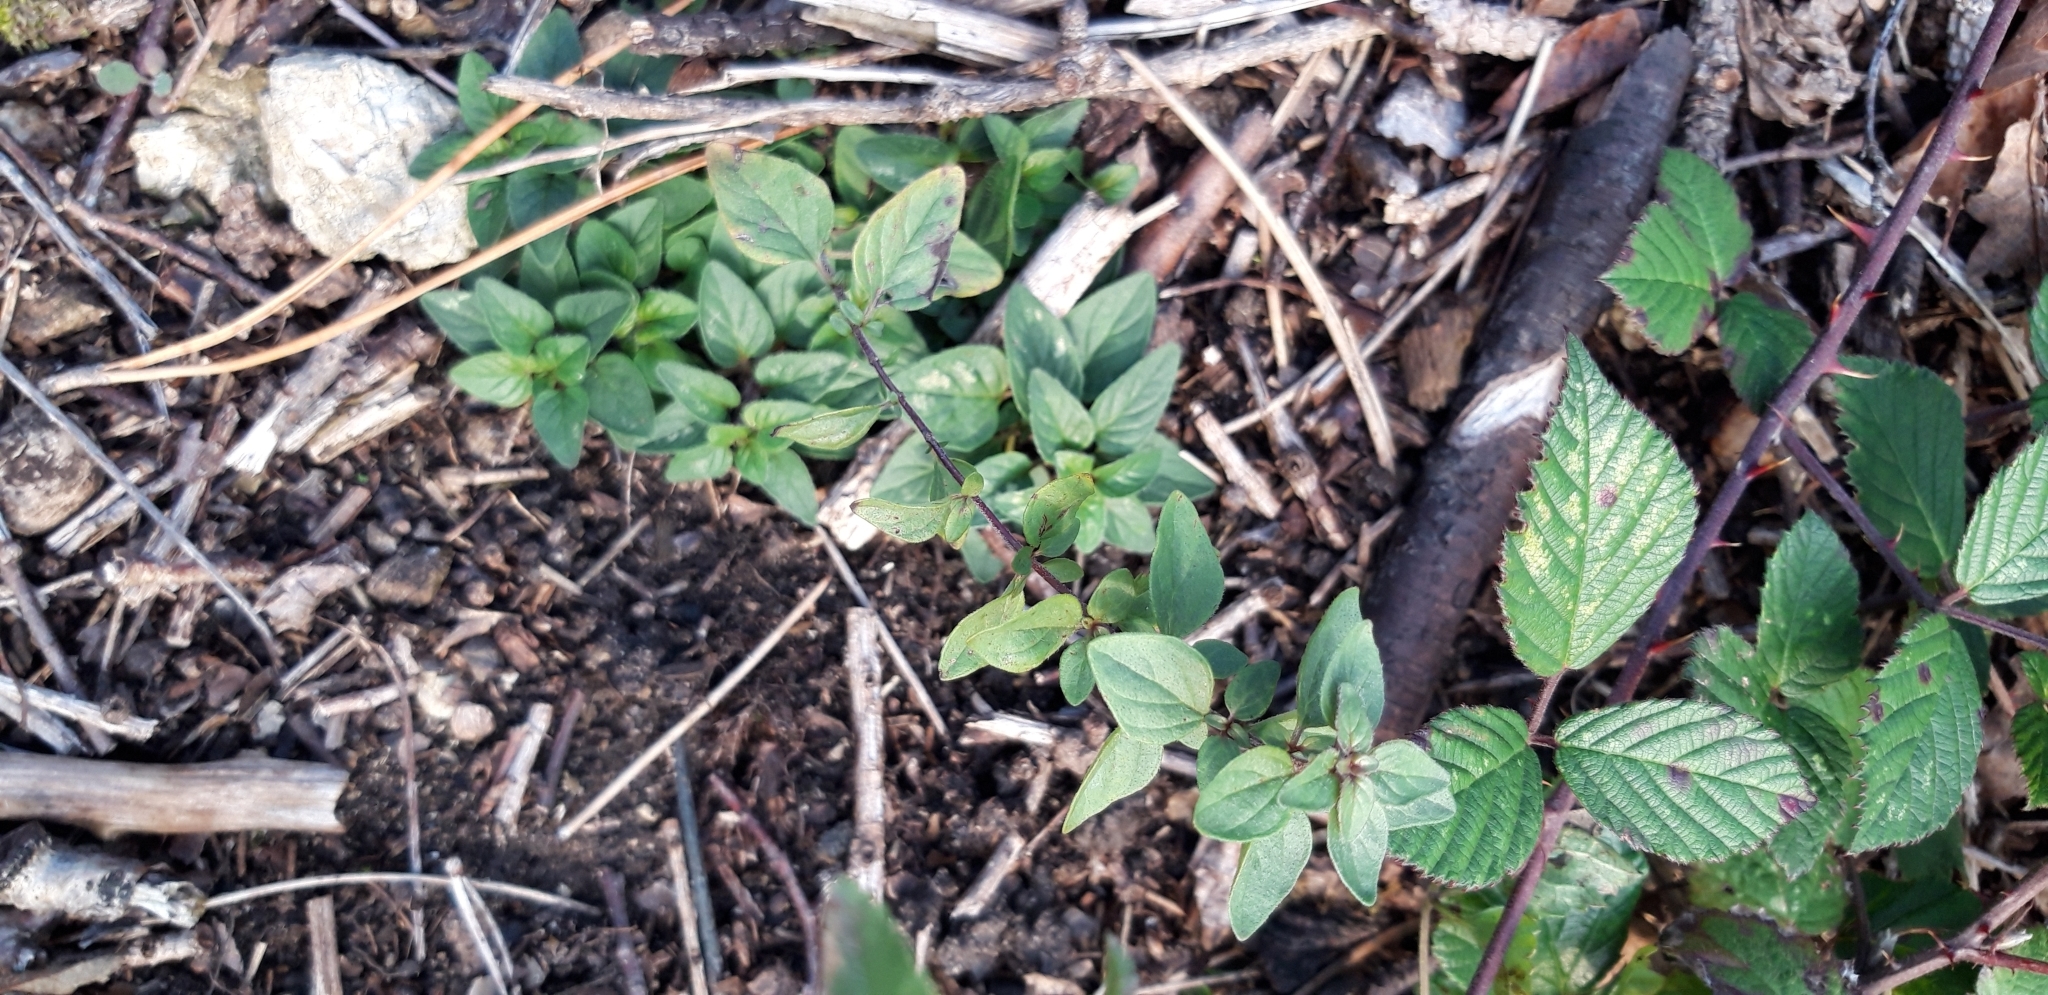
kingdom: Plantae
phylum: Tracheophyta
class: Magnoliopsida
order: Lamiales
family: Lamiaceae
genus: Origanum
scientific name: Origanum vulgare
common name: Wild marjoram
